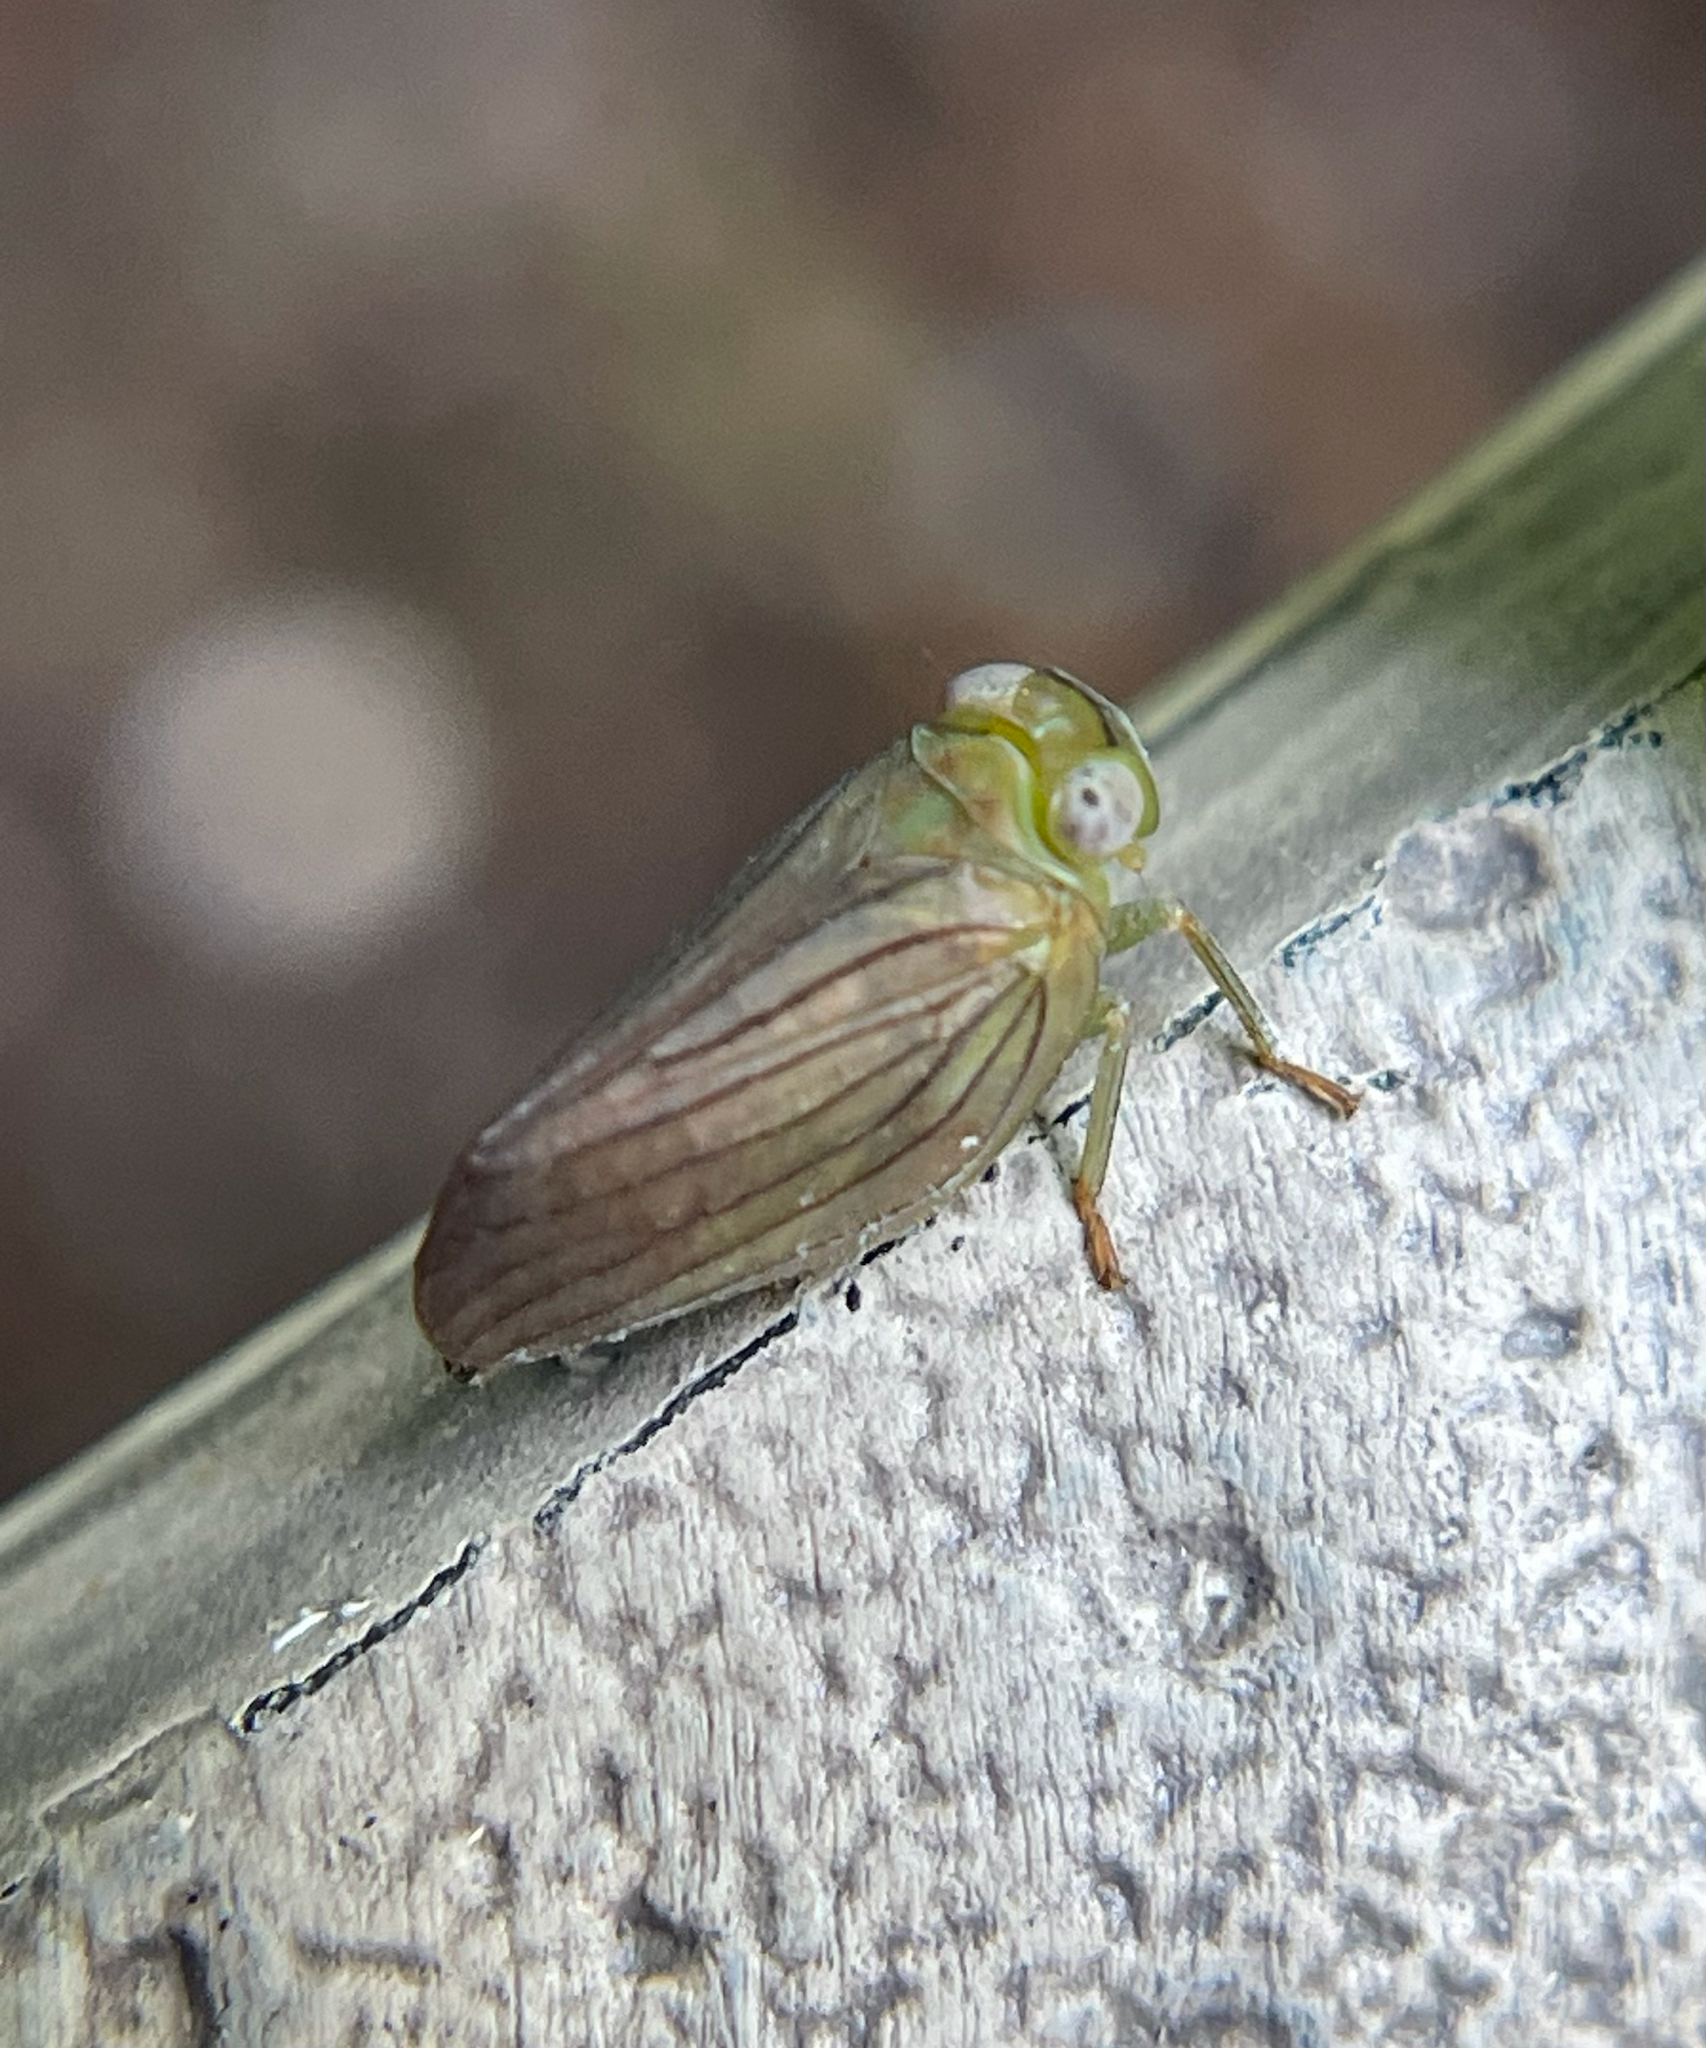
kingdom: Animalia
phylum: Arthropoda
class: Insecta
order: Hemiptera
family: Issidae
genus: Aplos
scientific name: Aplos simplex
